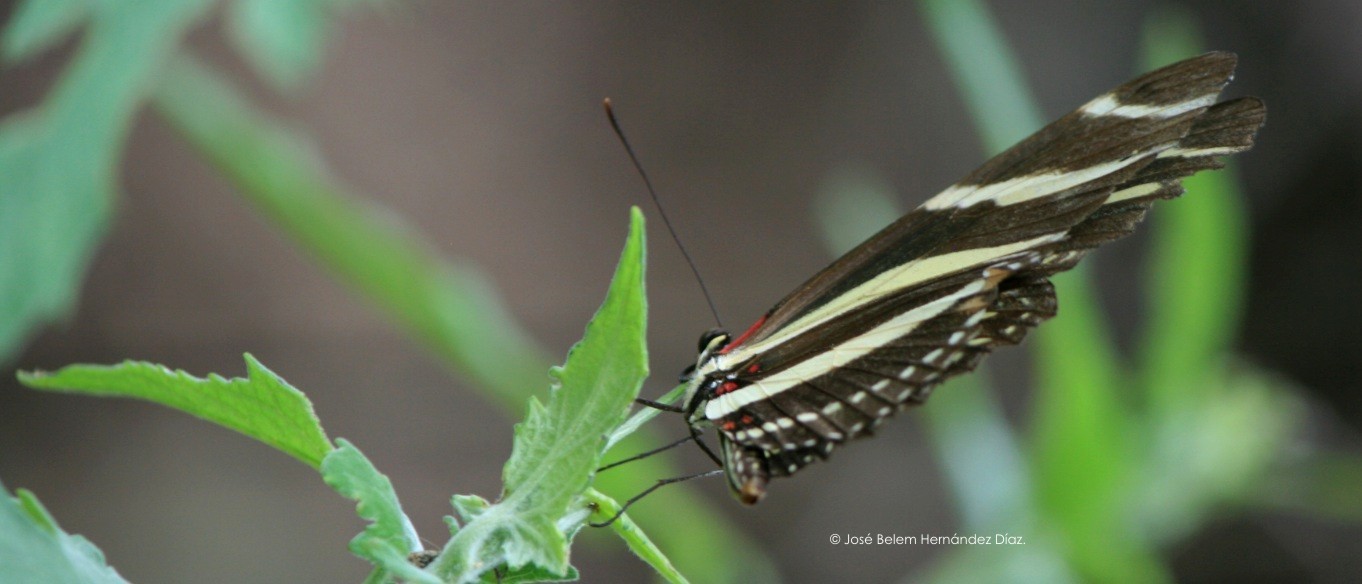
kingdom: Animalia
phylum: Arthropoda
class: Insecta
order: Lepidoptera
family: Nymphalidae
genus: Heliconius
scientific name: Heliconius charithonia
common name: Zebra long wing
